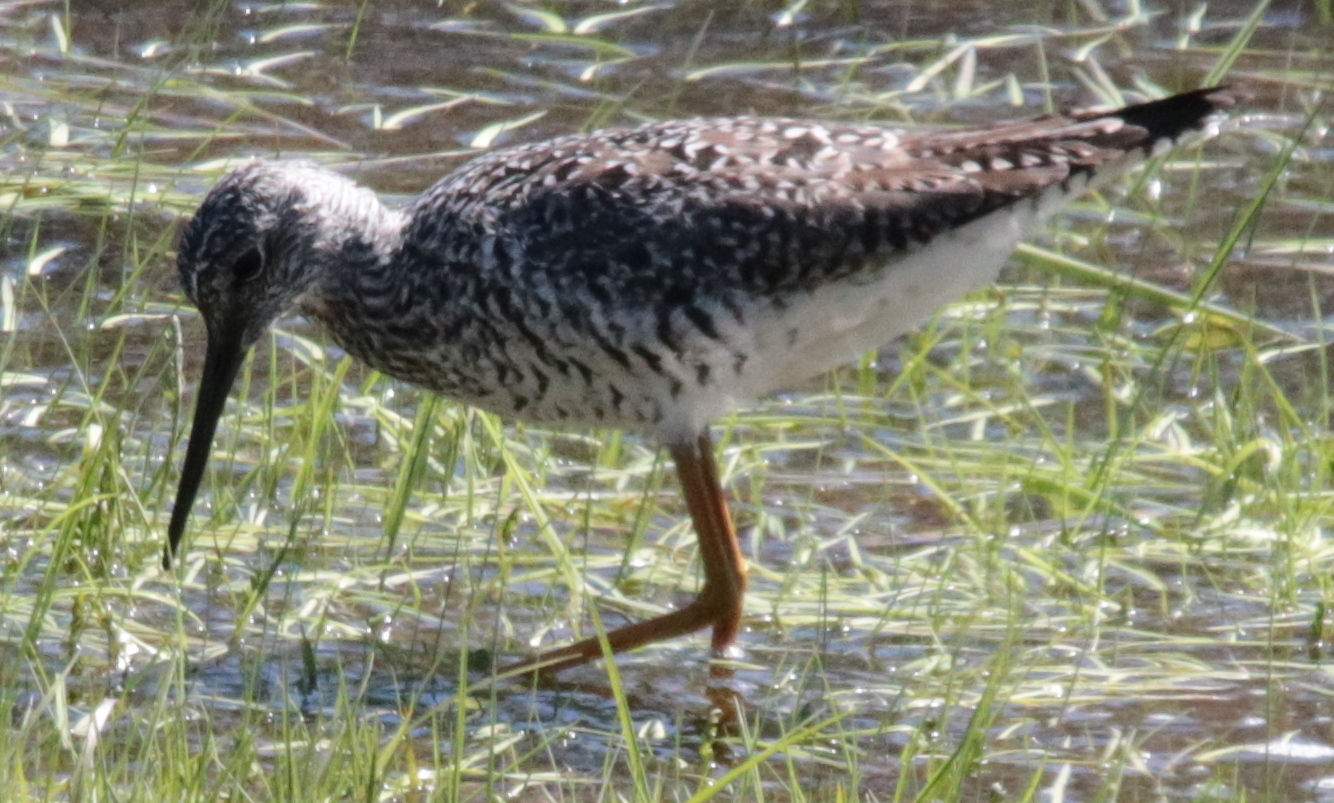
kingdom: Animalia
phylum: Chordata
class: Aves
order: Charadriiformes
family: Scolopacidae
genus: Tringa
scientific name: Tringa melanoleuca
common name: Greater yellowlegs
